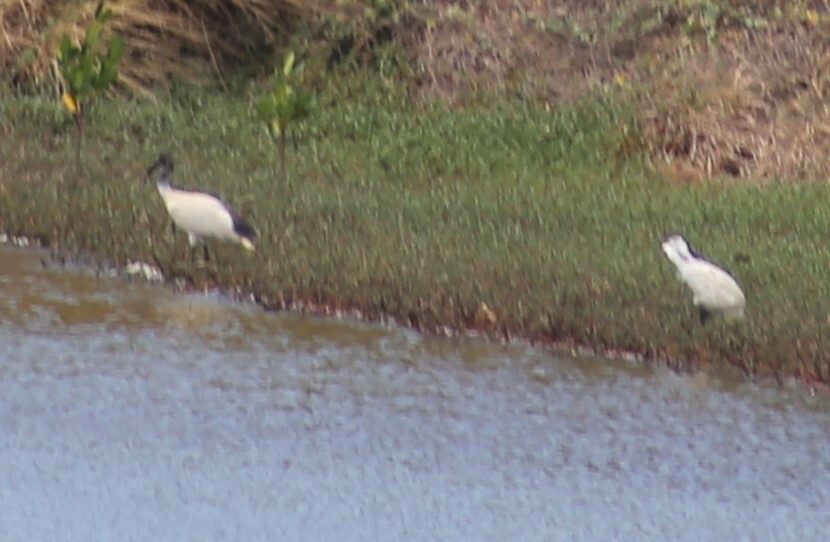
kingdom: Animalia
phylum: Chordata
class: Aves
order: Pelecaniformes
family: Threskiornithidae
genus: Threskiornis
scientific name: Threskiornis molucca
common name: Australian white ibis
